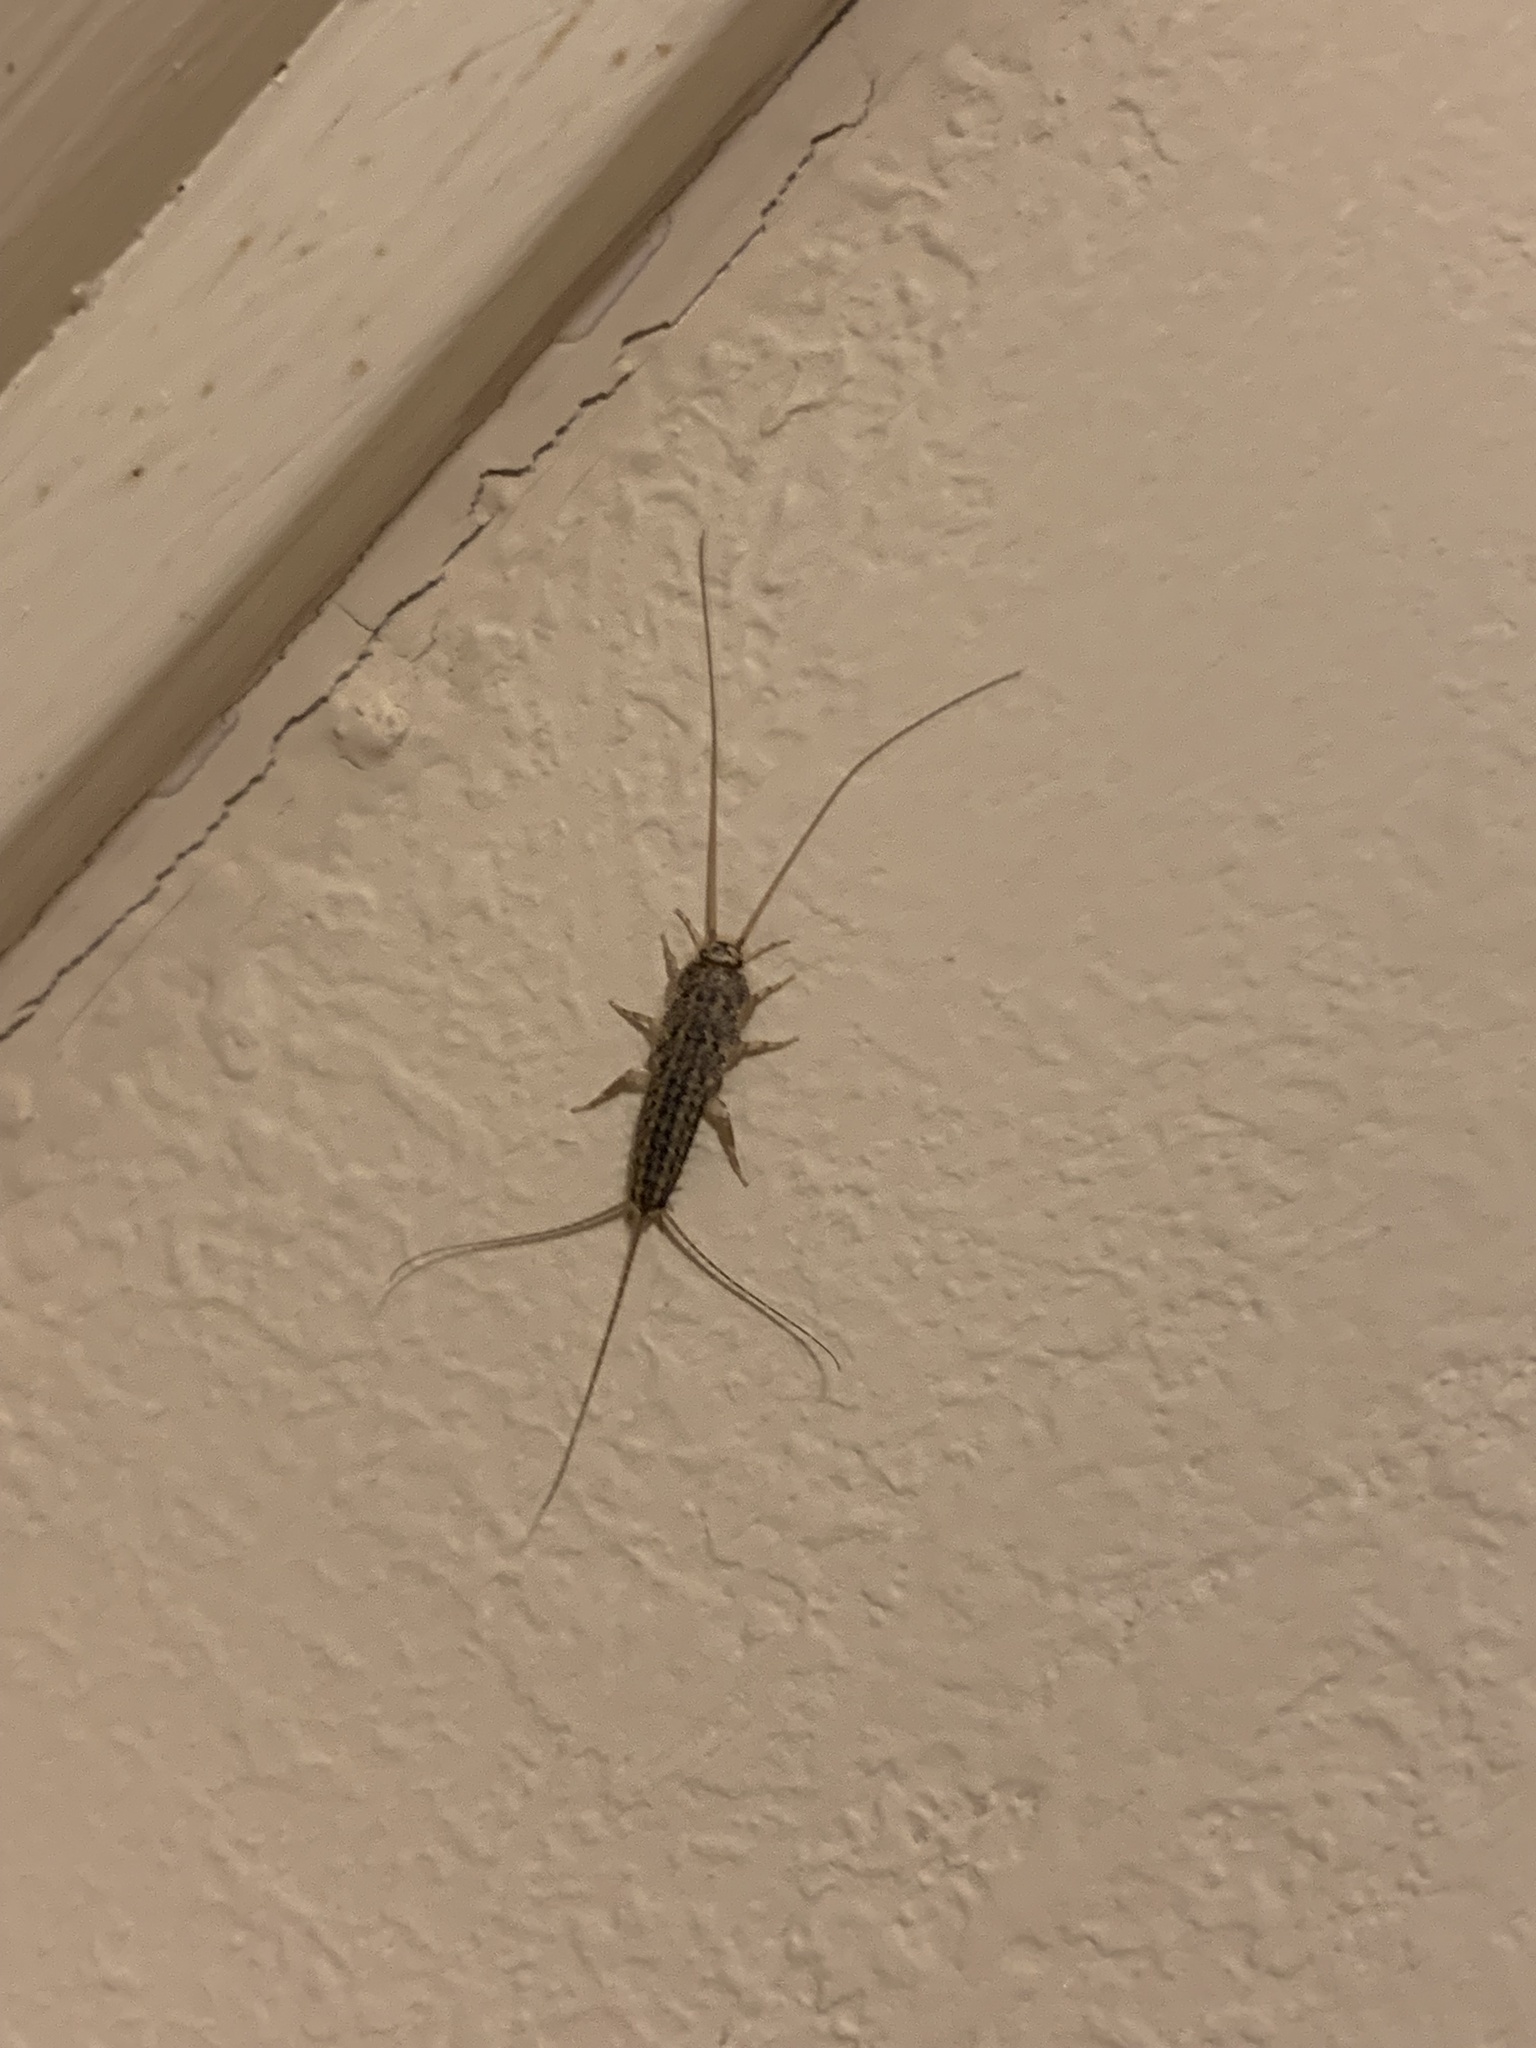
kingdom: Animalia
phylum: Arthropoda
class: Insecta
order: Zygentoma
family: Lepismatidae
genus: Ctenolepisma
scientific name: Ctenolepisma lineata
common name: Four-lined silverfish
